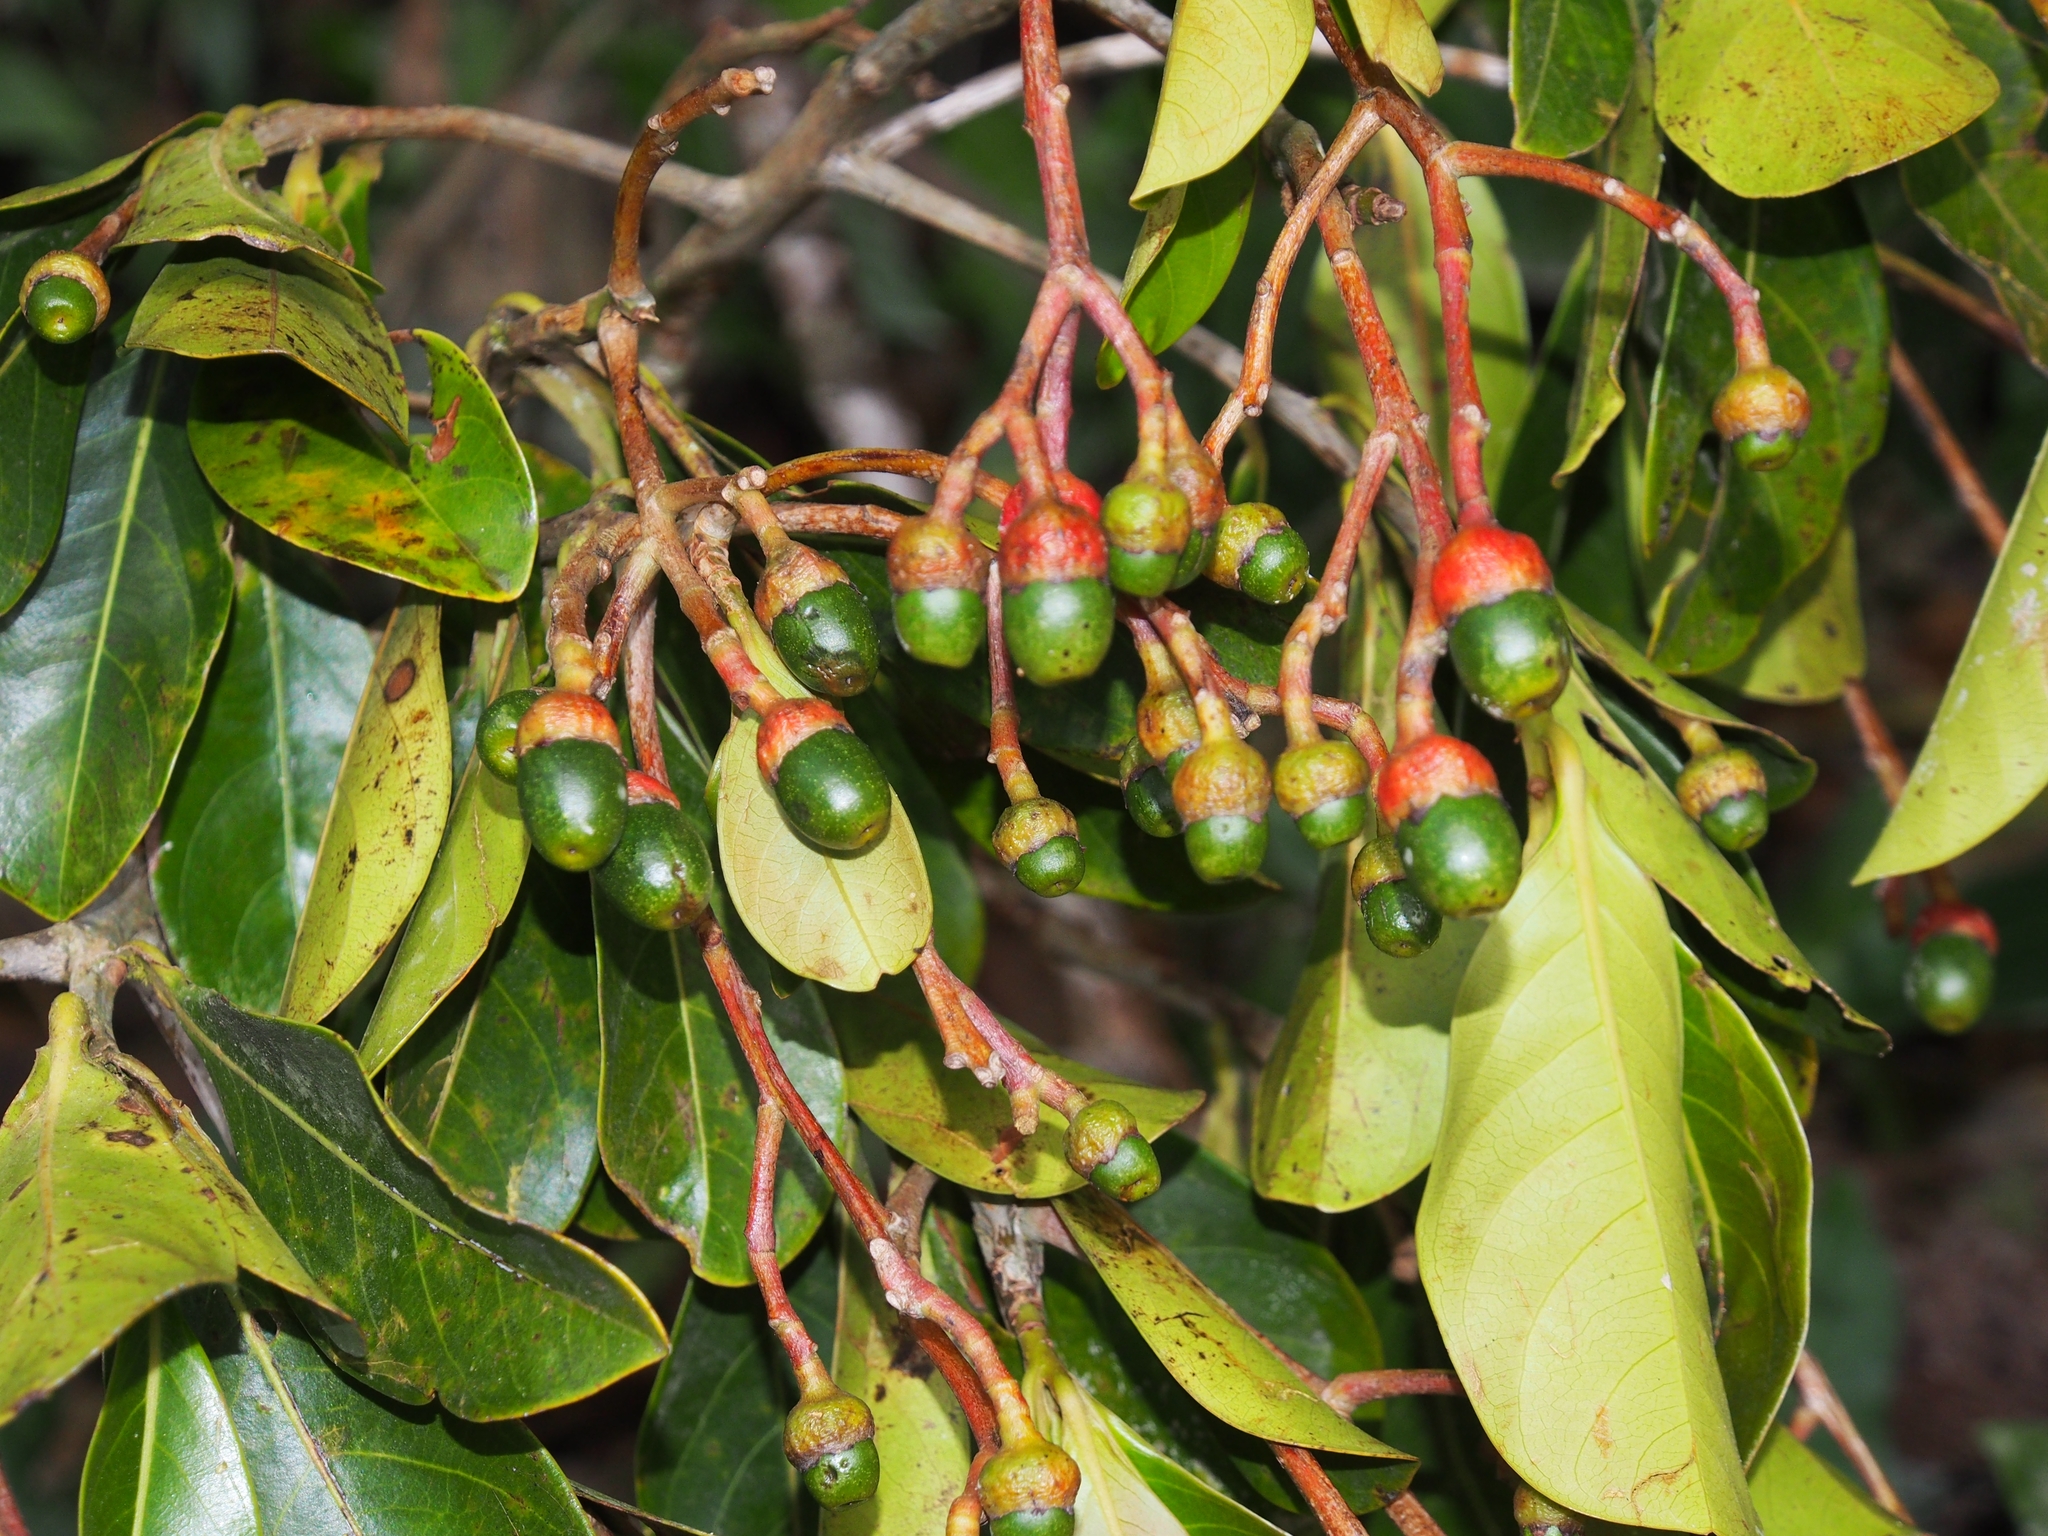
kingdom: Plantae
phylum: Tracheophyta
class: Magnoliopsida
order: Laurales
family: Lauraceae
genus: Ocotea
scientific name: Ocotea insularis
